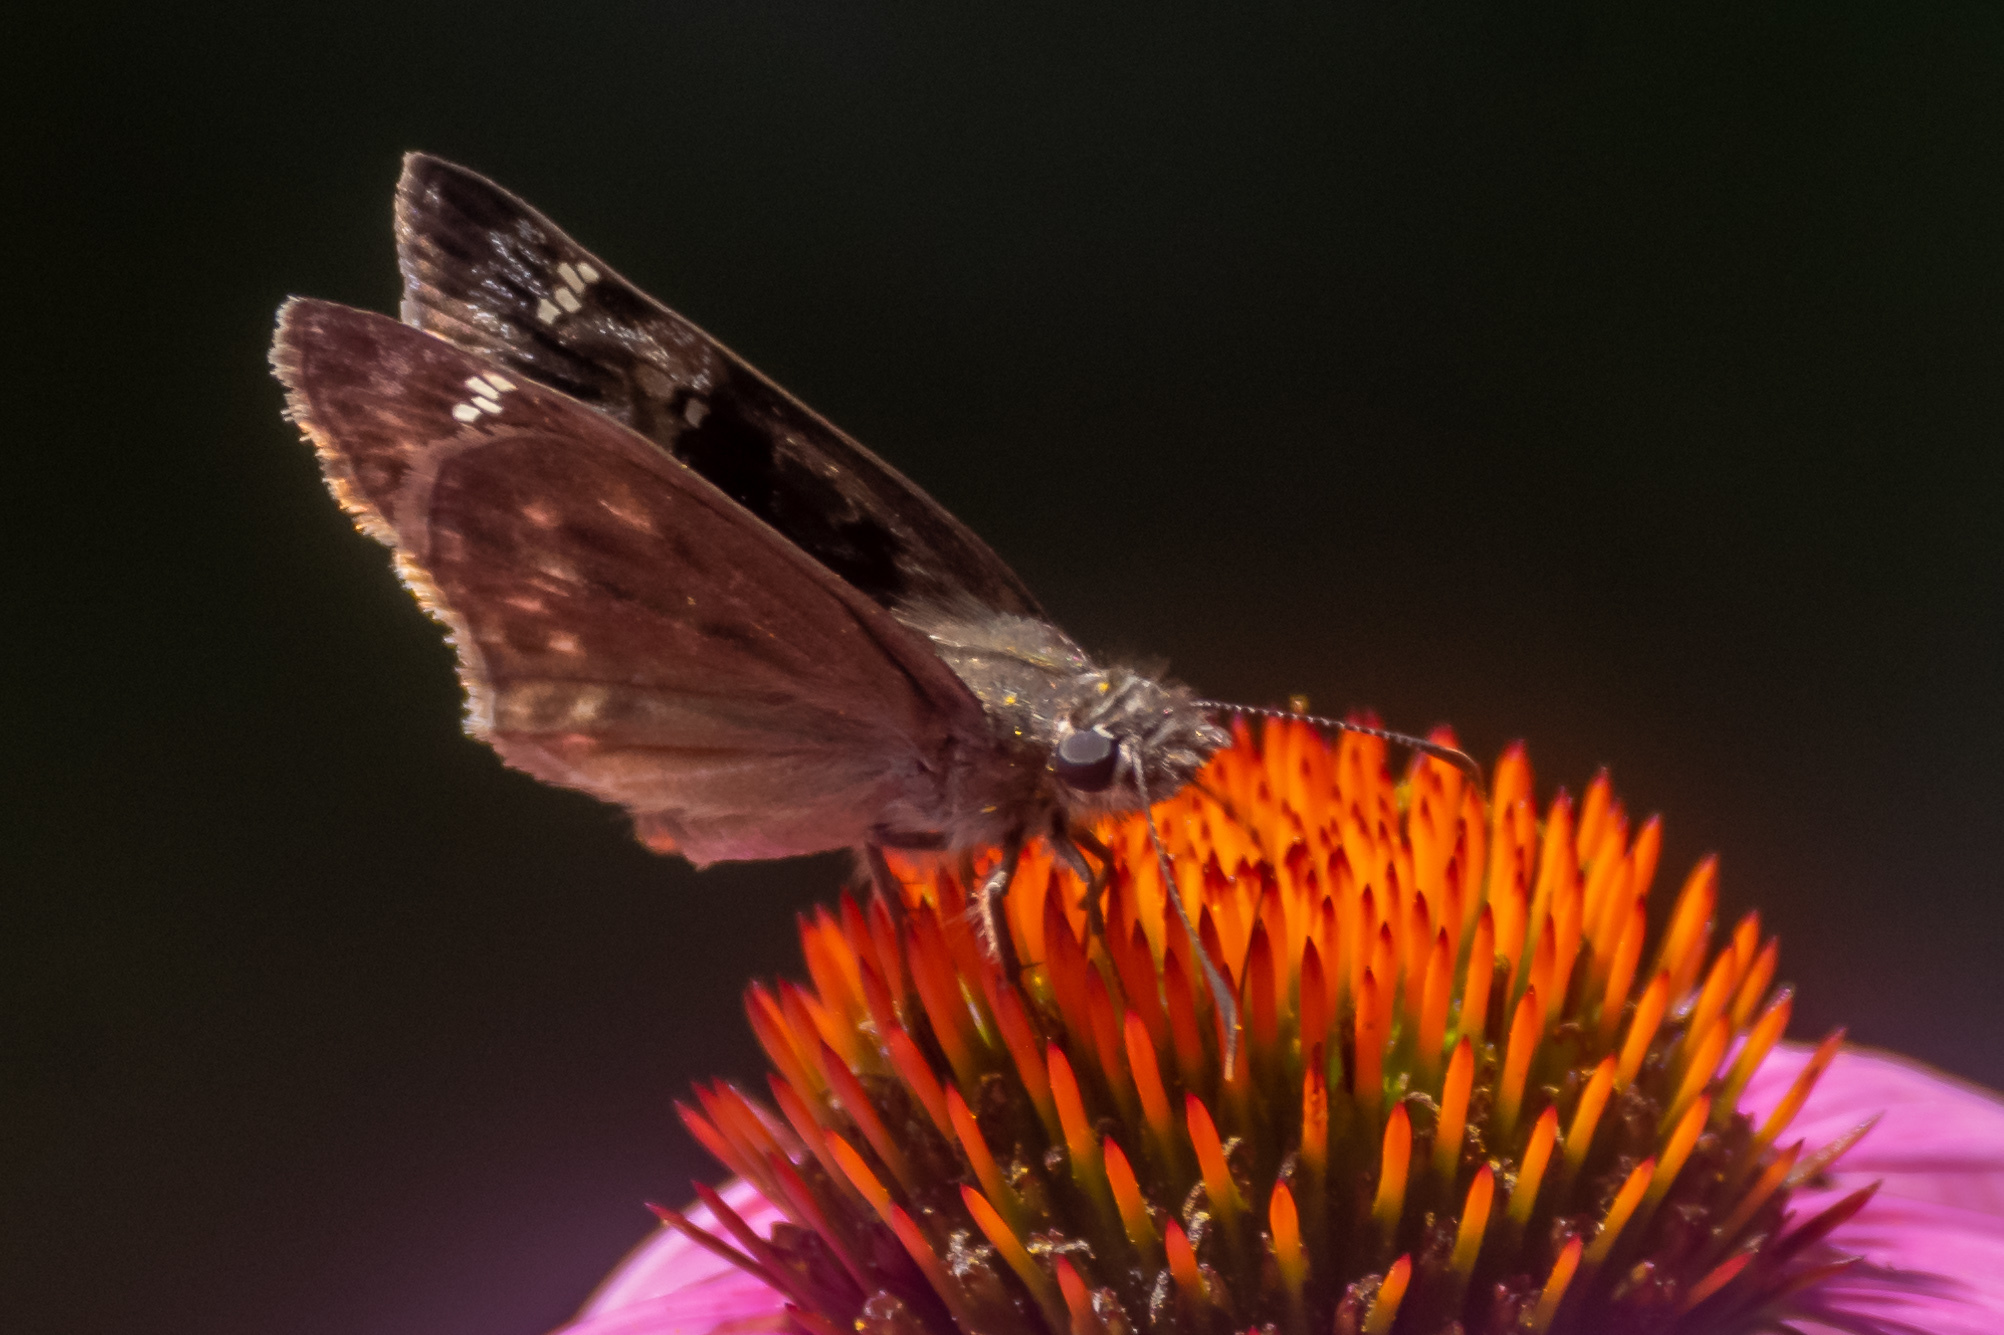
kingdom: Animalia
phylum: Arthropoda
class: Insecta
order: Lepidoptera
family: Hesperiidae
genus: Erynnis
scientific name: Erynnis horatius
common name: Horace's duskywing
